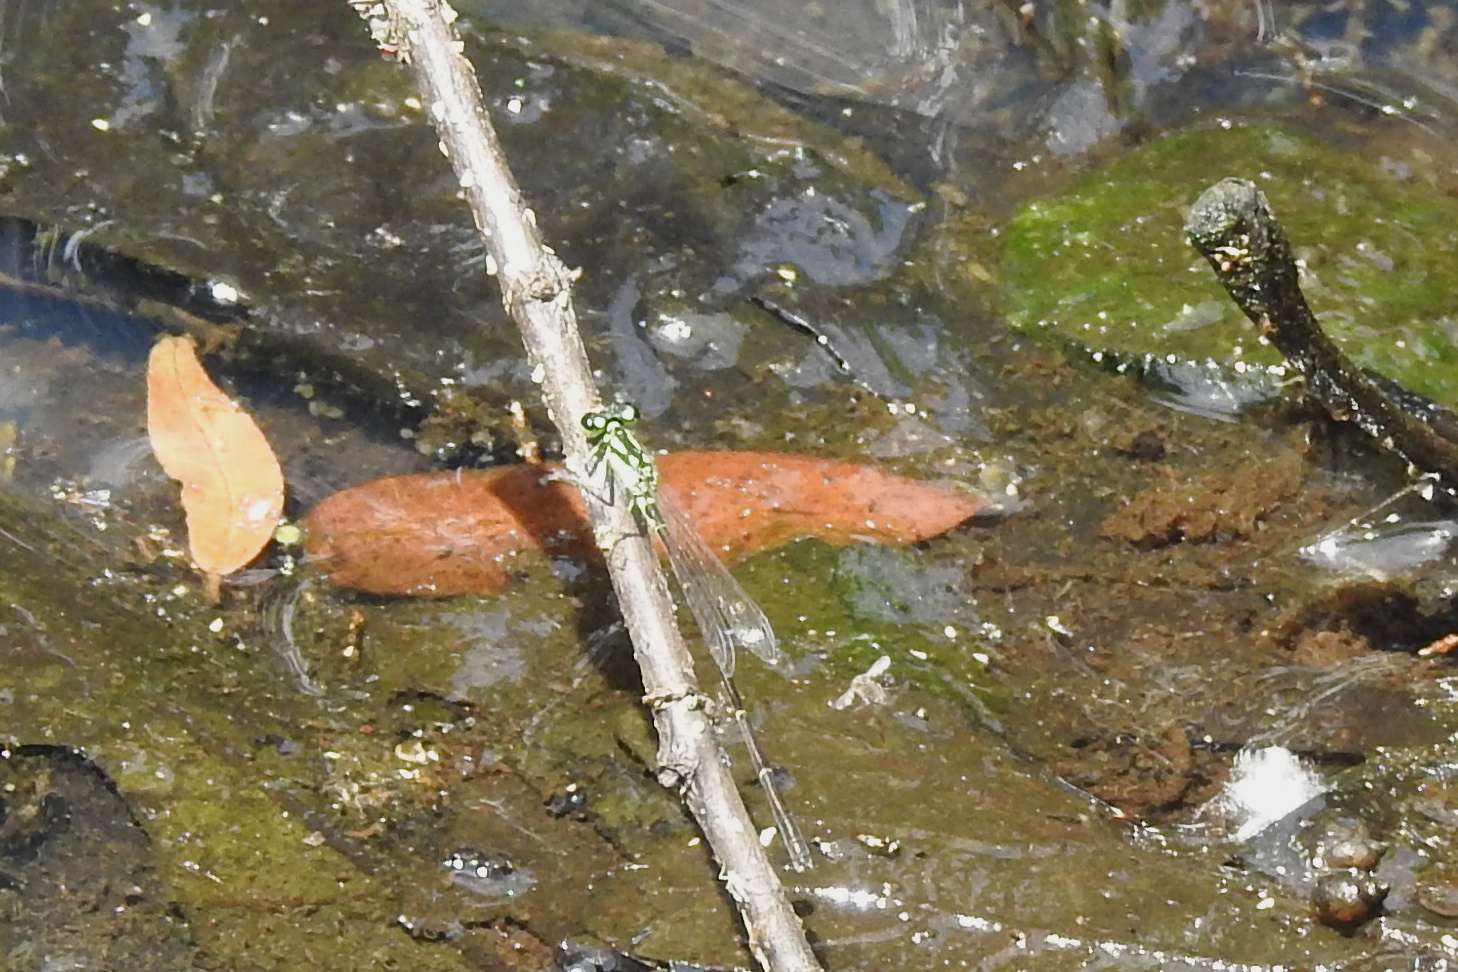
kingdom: Animalia
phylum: Arthropoda
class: Insecta
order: Odonata
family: Coenagrionidae
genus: Ischnura
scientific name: Ischnura posita
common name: Fragile forktail
